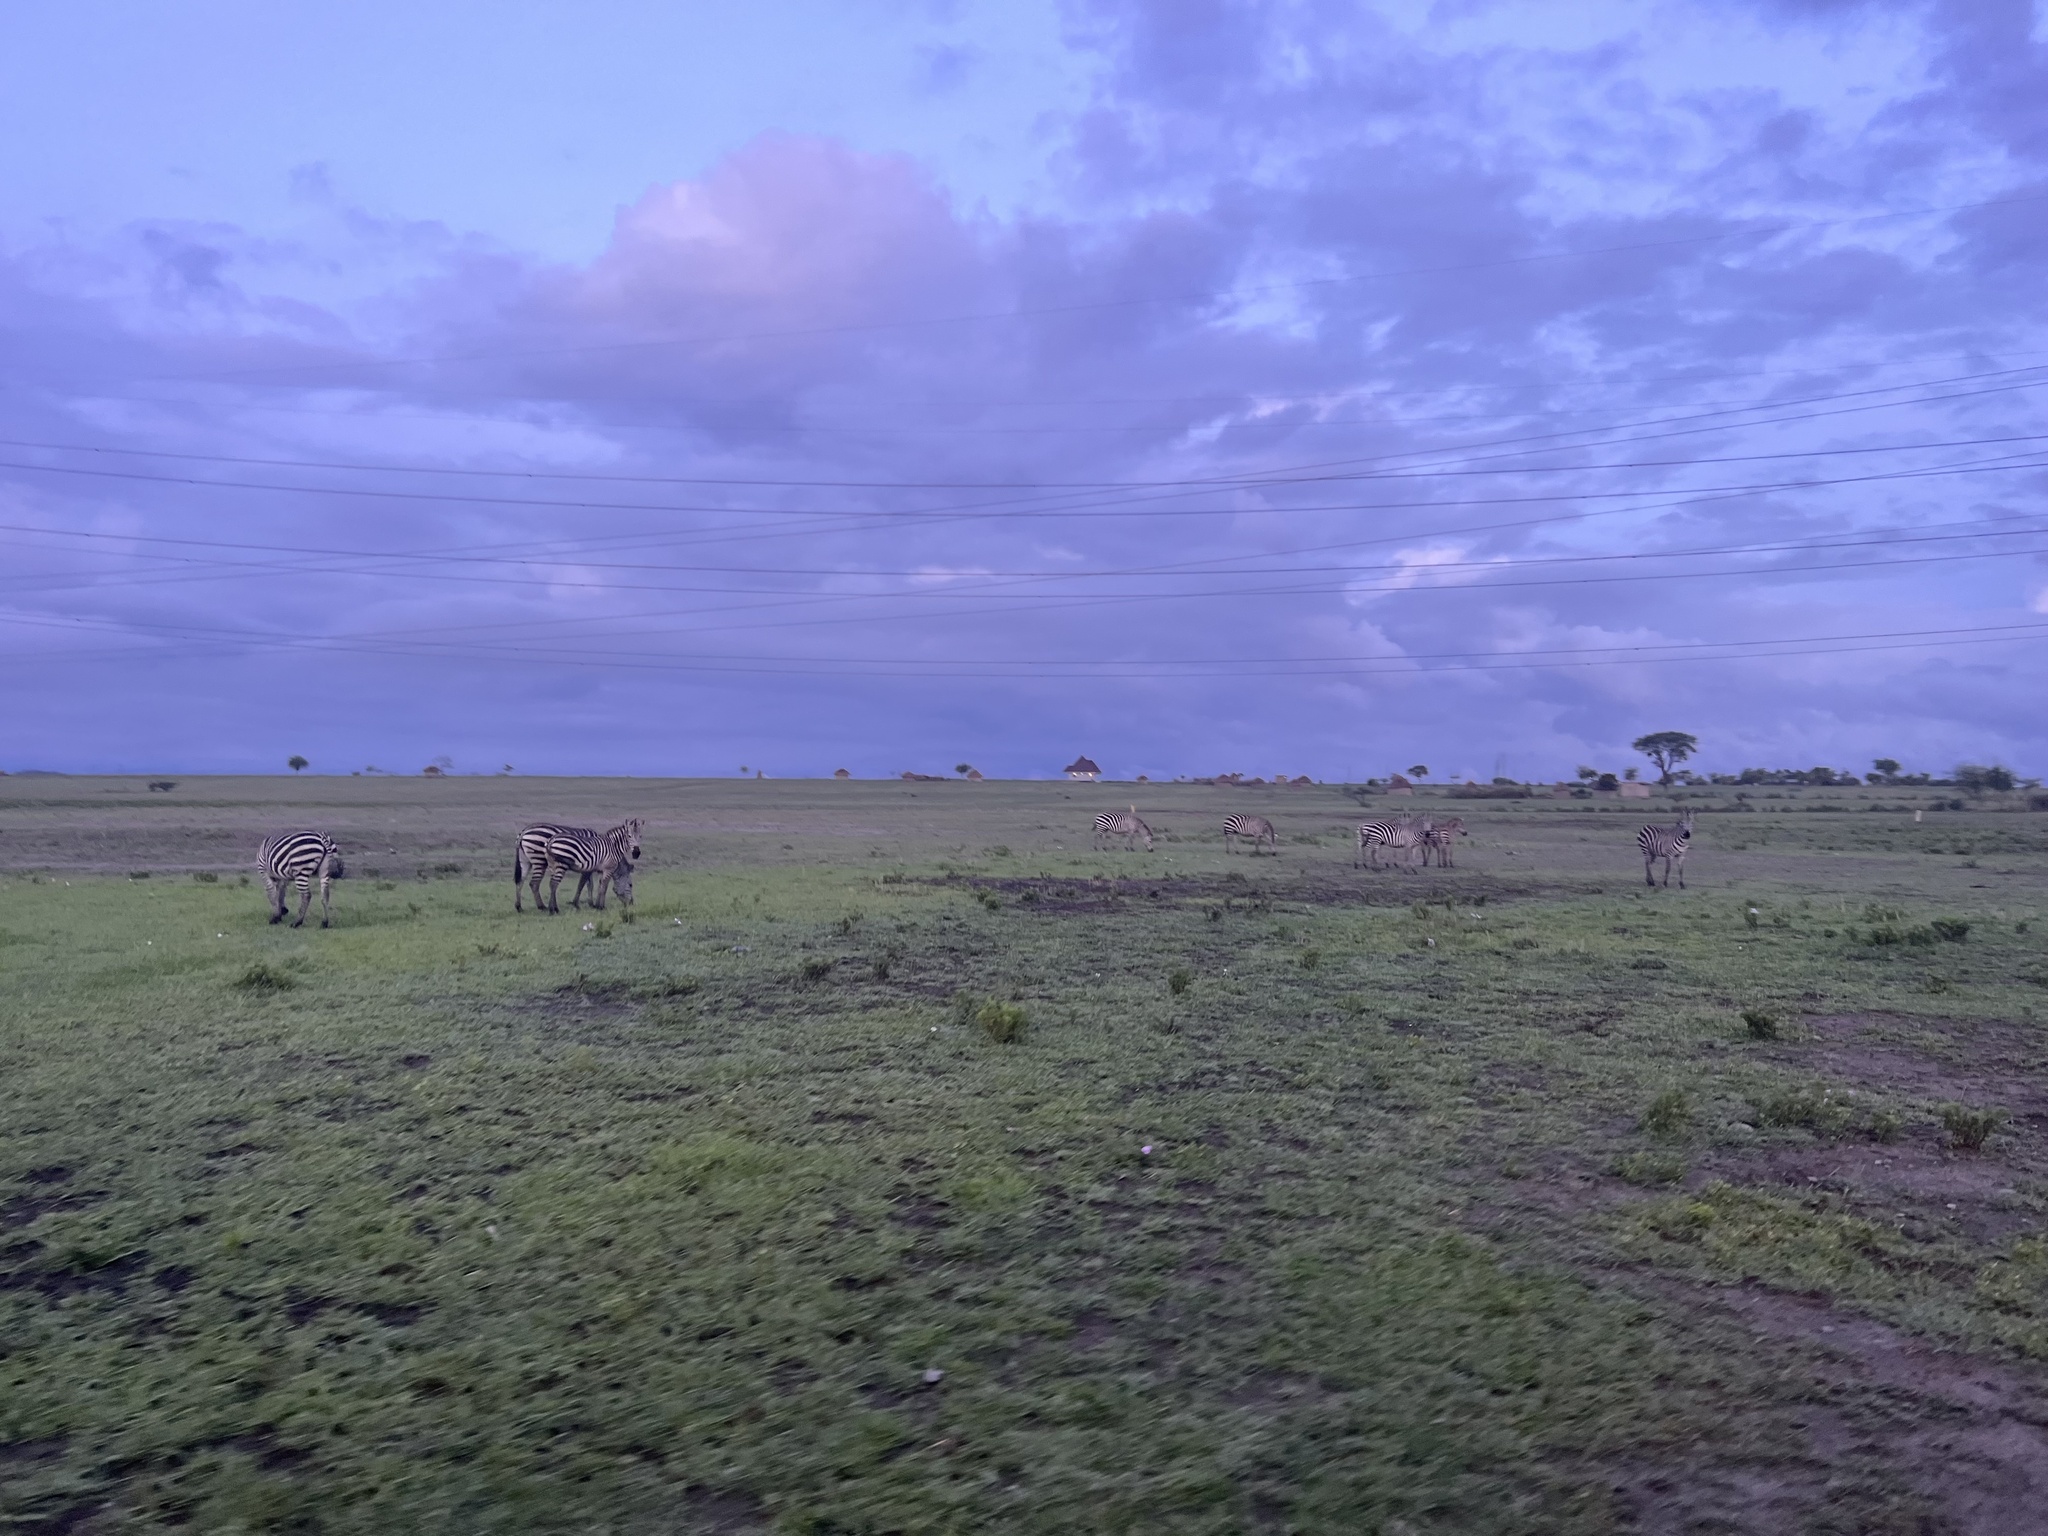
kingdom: Animalia
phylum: Chordata
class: Mammalia
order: Perissodactyla
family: Equidae
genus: Equus
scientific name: Equus quagga
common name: Plains zebra
